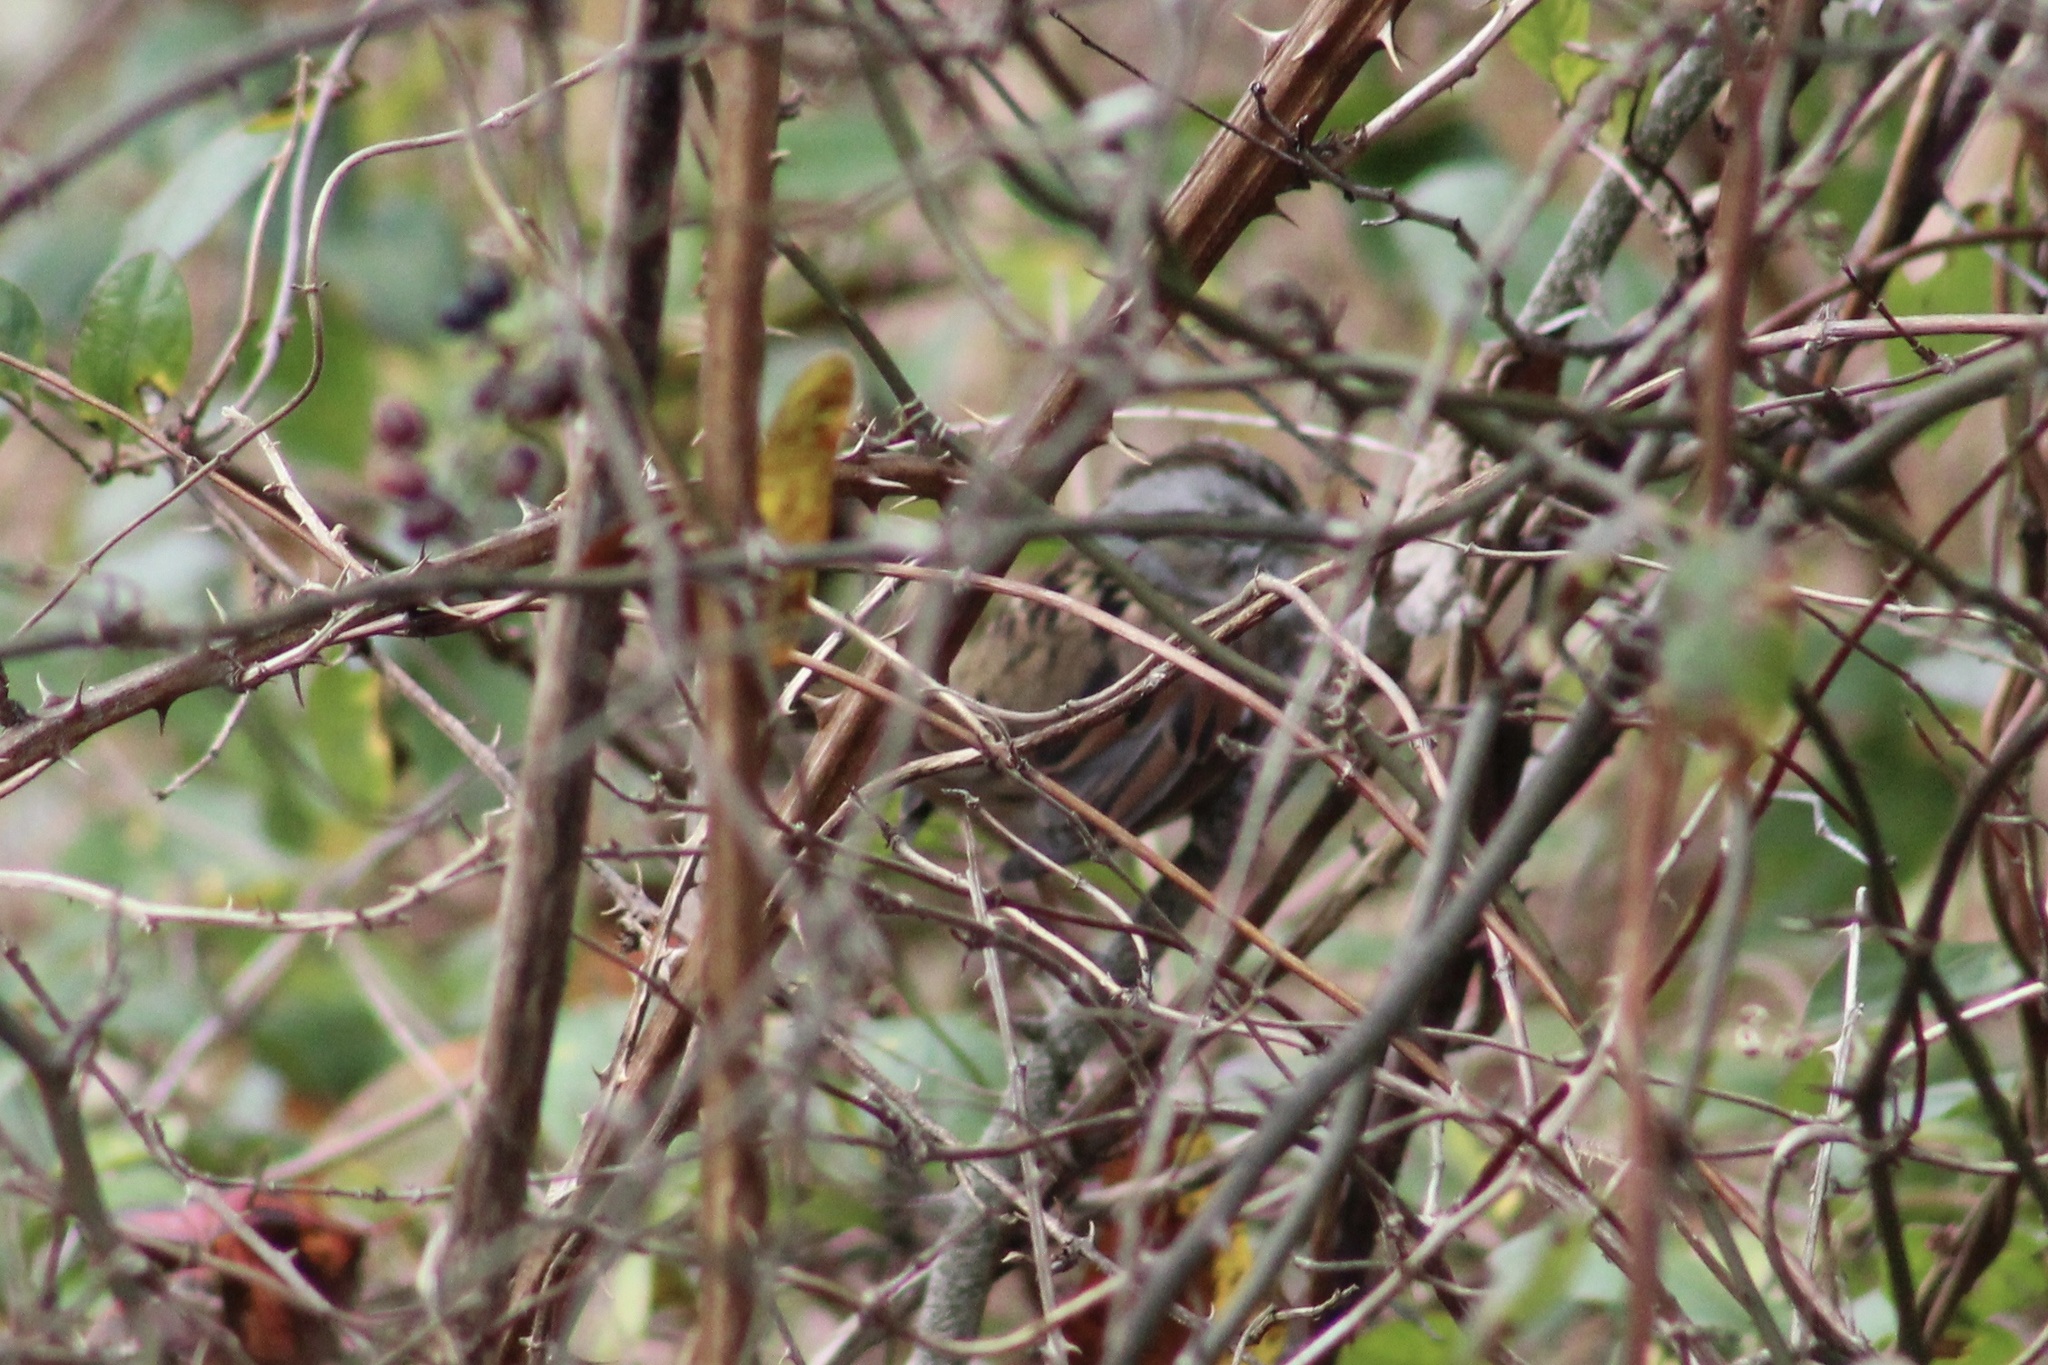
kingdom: Animalia
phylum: Chordata
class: Aves
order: Passeriformes
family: Passerellidae
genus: Melospiza
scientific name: Melospiza georgiana
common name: Swamp sparrow
